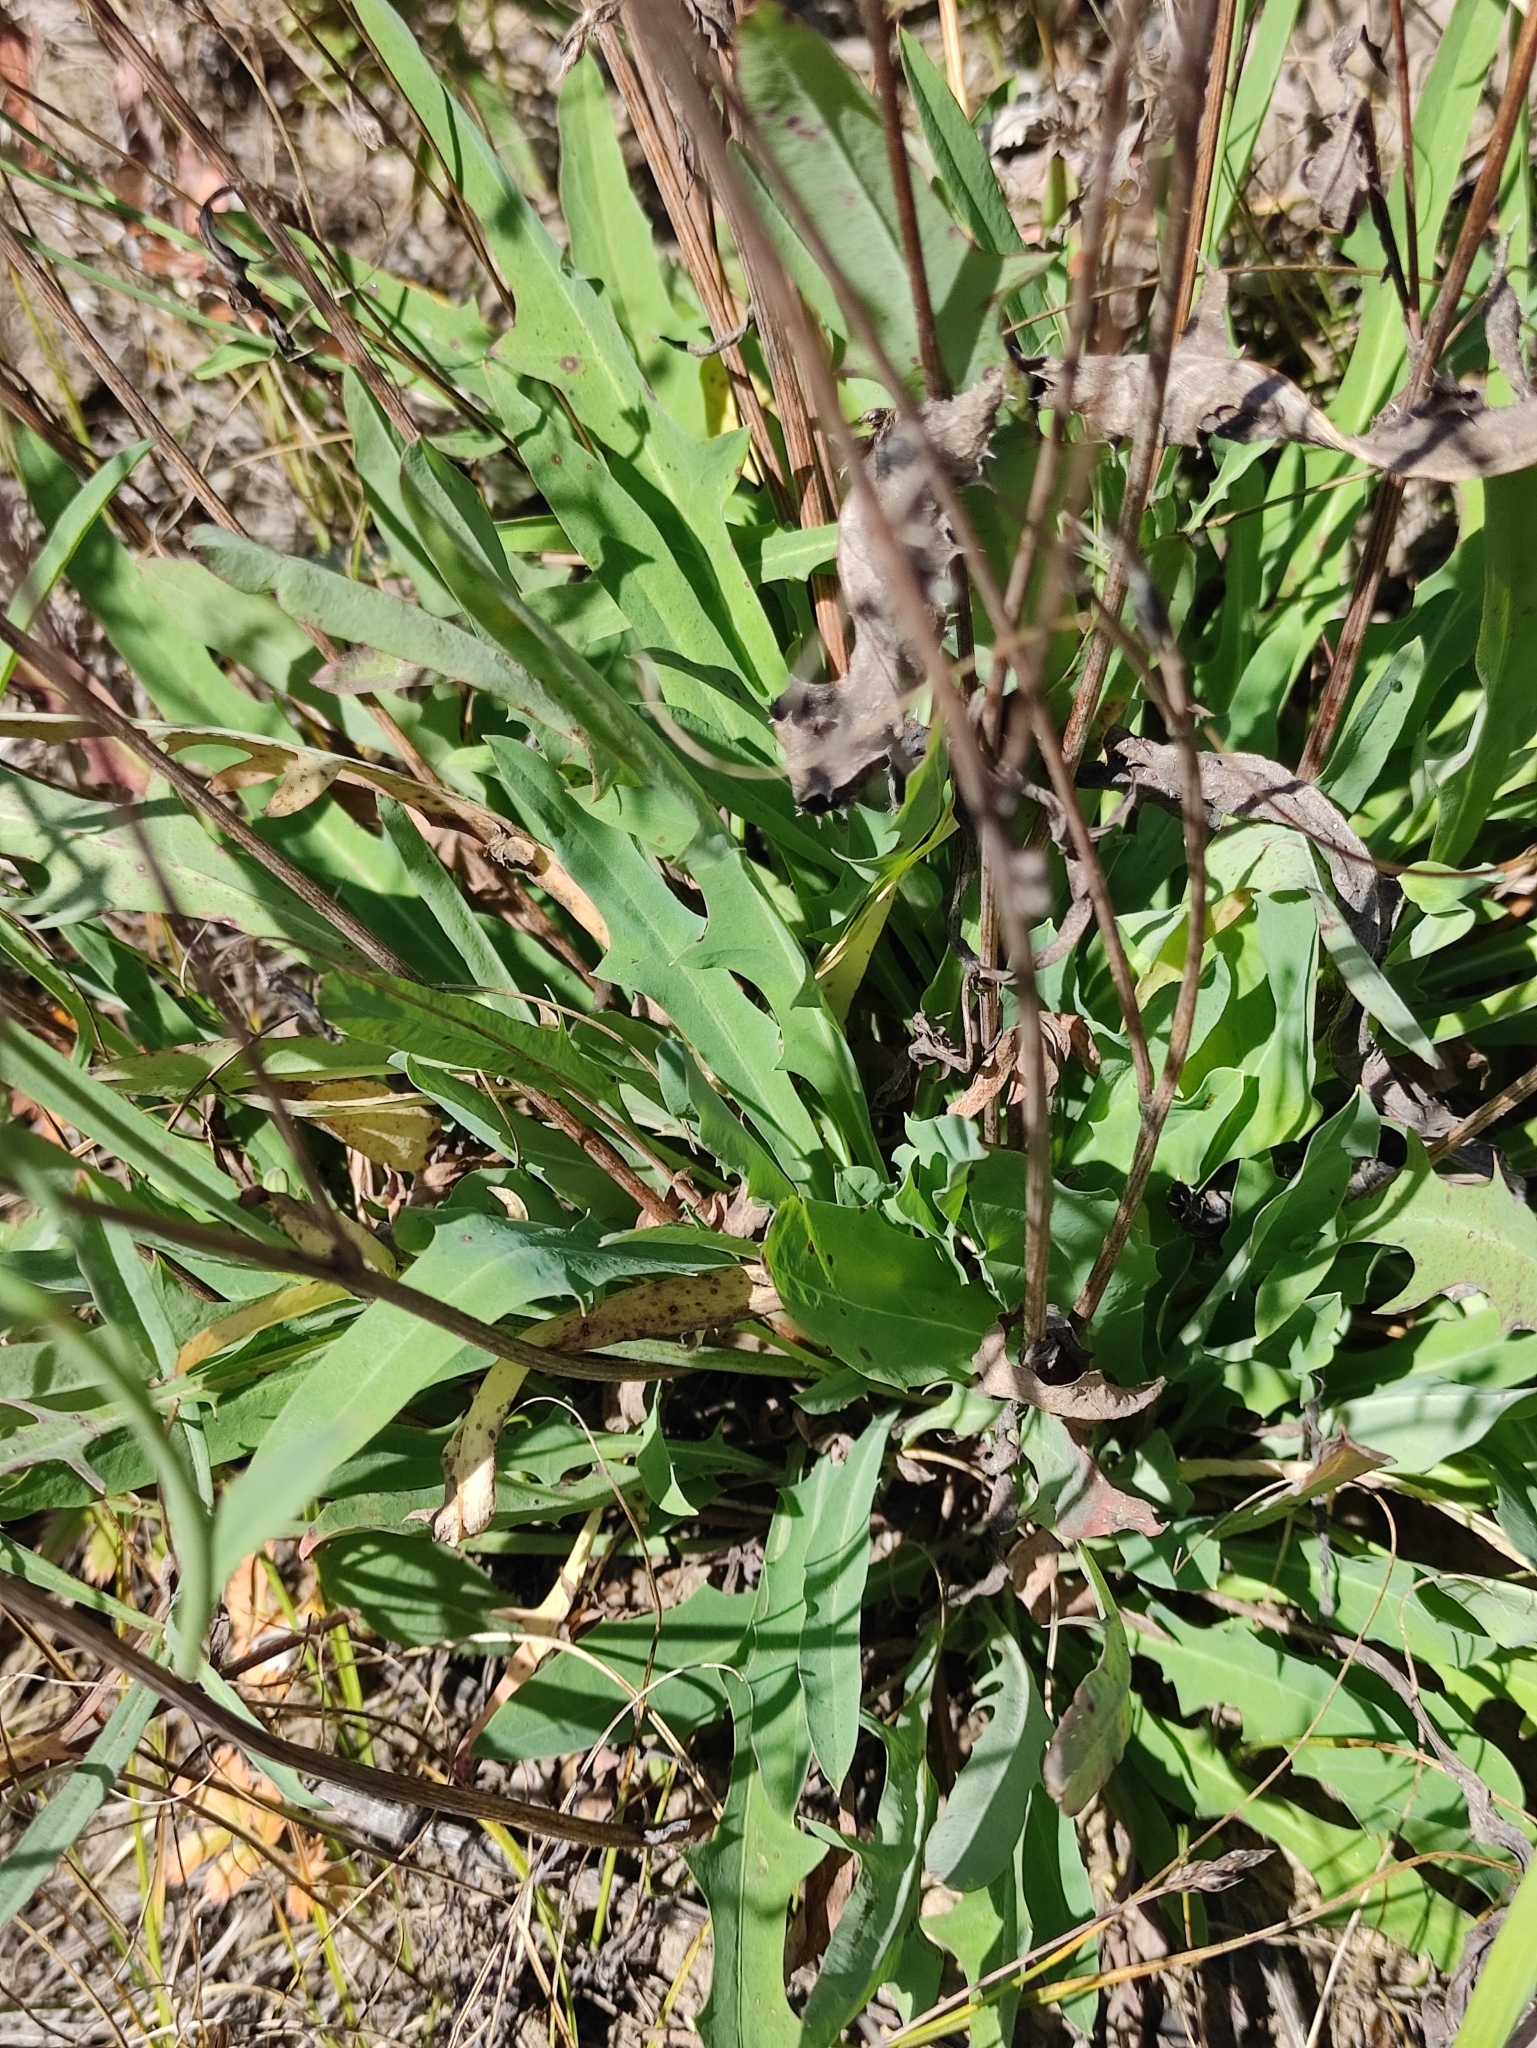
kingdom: Plantae
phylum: Tracheophyta
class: Magnoliopsida
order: Asterales
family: Asteraceae
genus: Ixeris
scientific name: Ixeris chinensis
